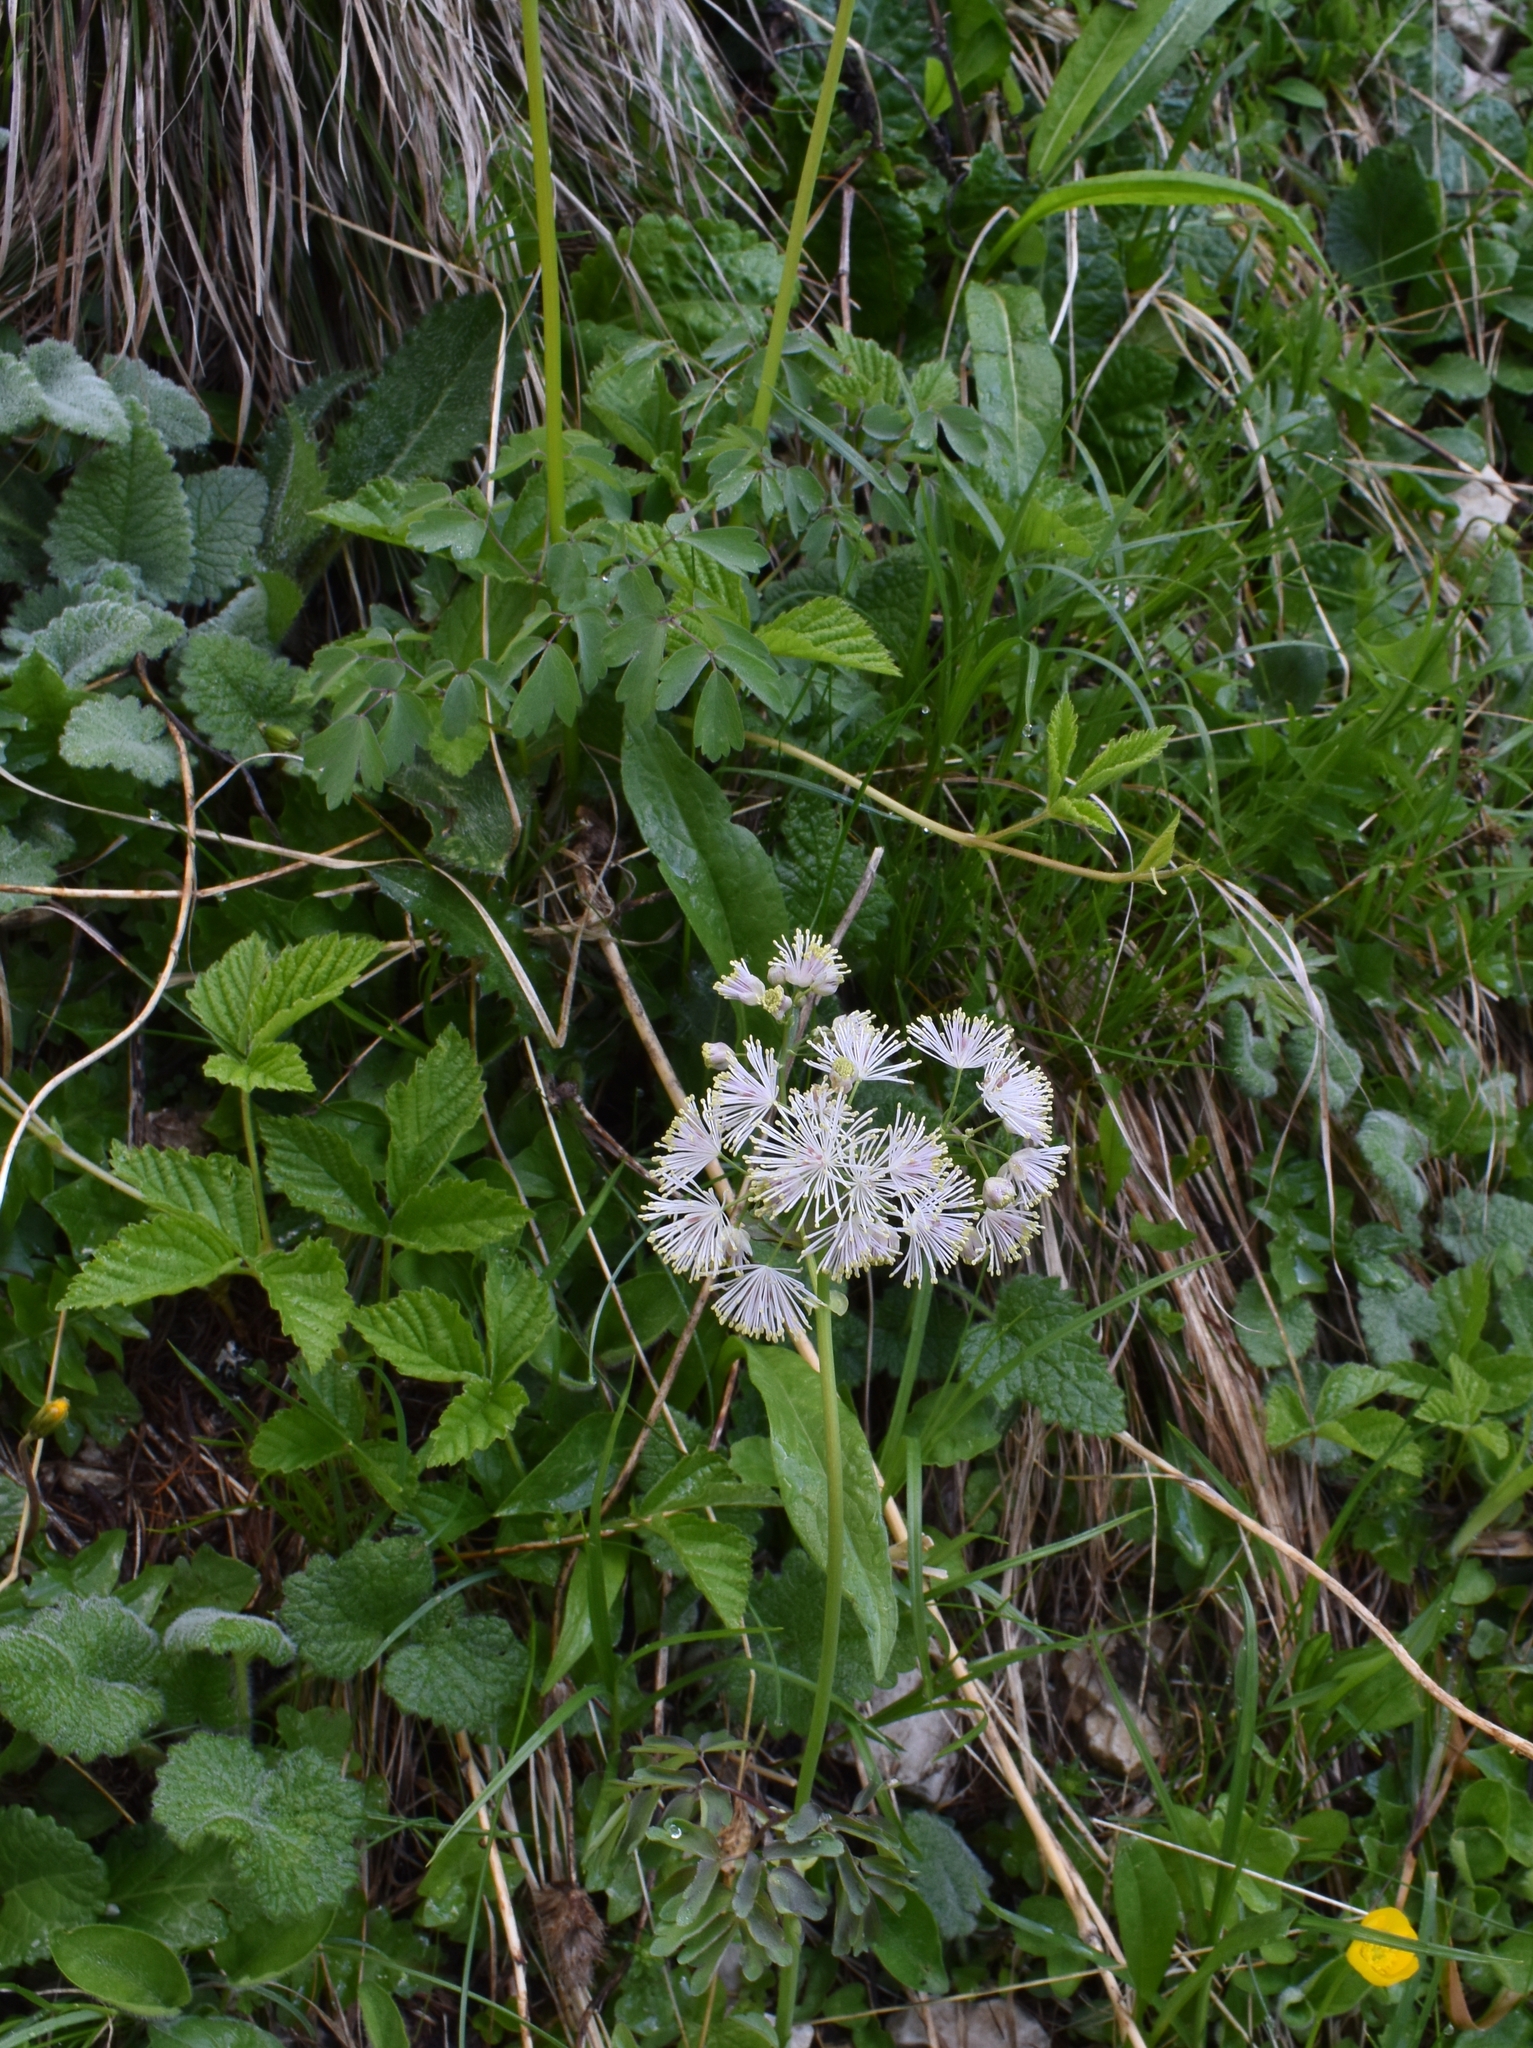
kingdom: Plantae
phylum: Tracheophyta
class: Magnoliopsida
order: Ranunculales
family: Ranunculaceae
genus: Thalictrum
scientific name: Thalictrum aquilegiifolium
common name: French meadow-rue
